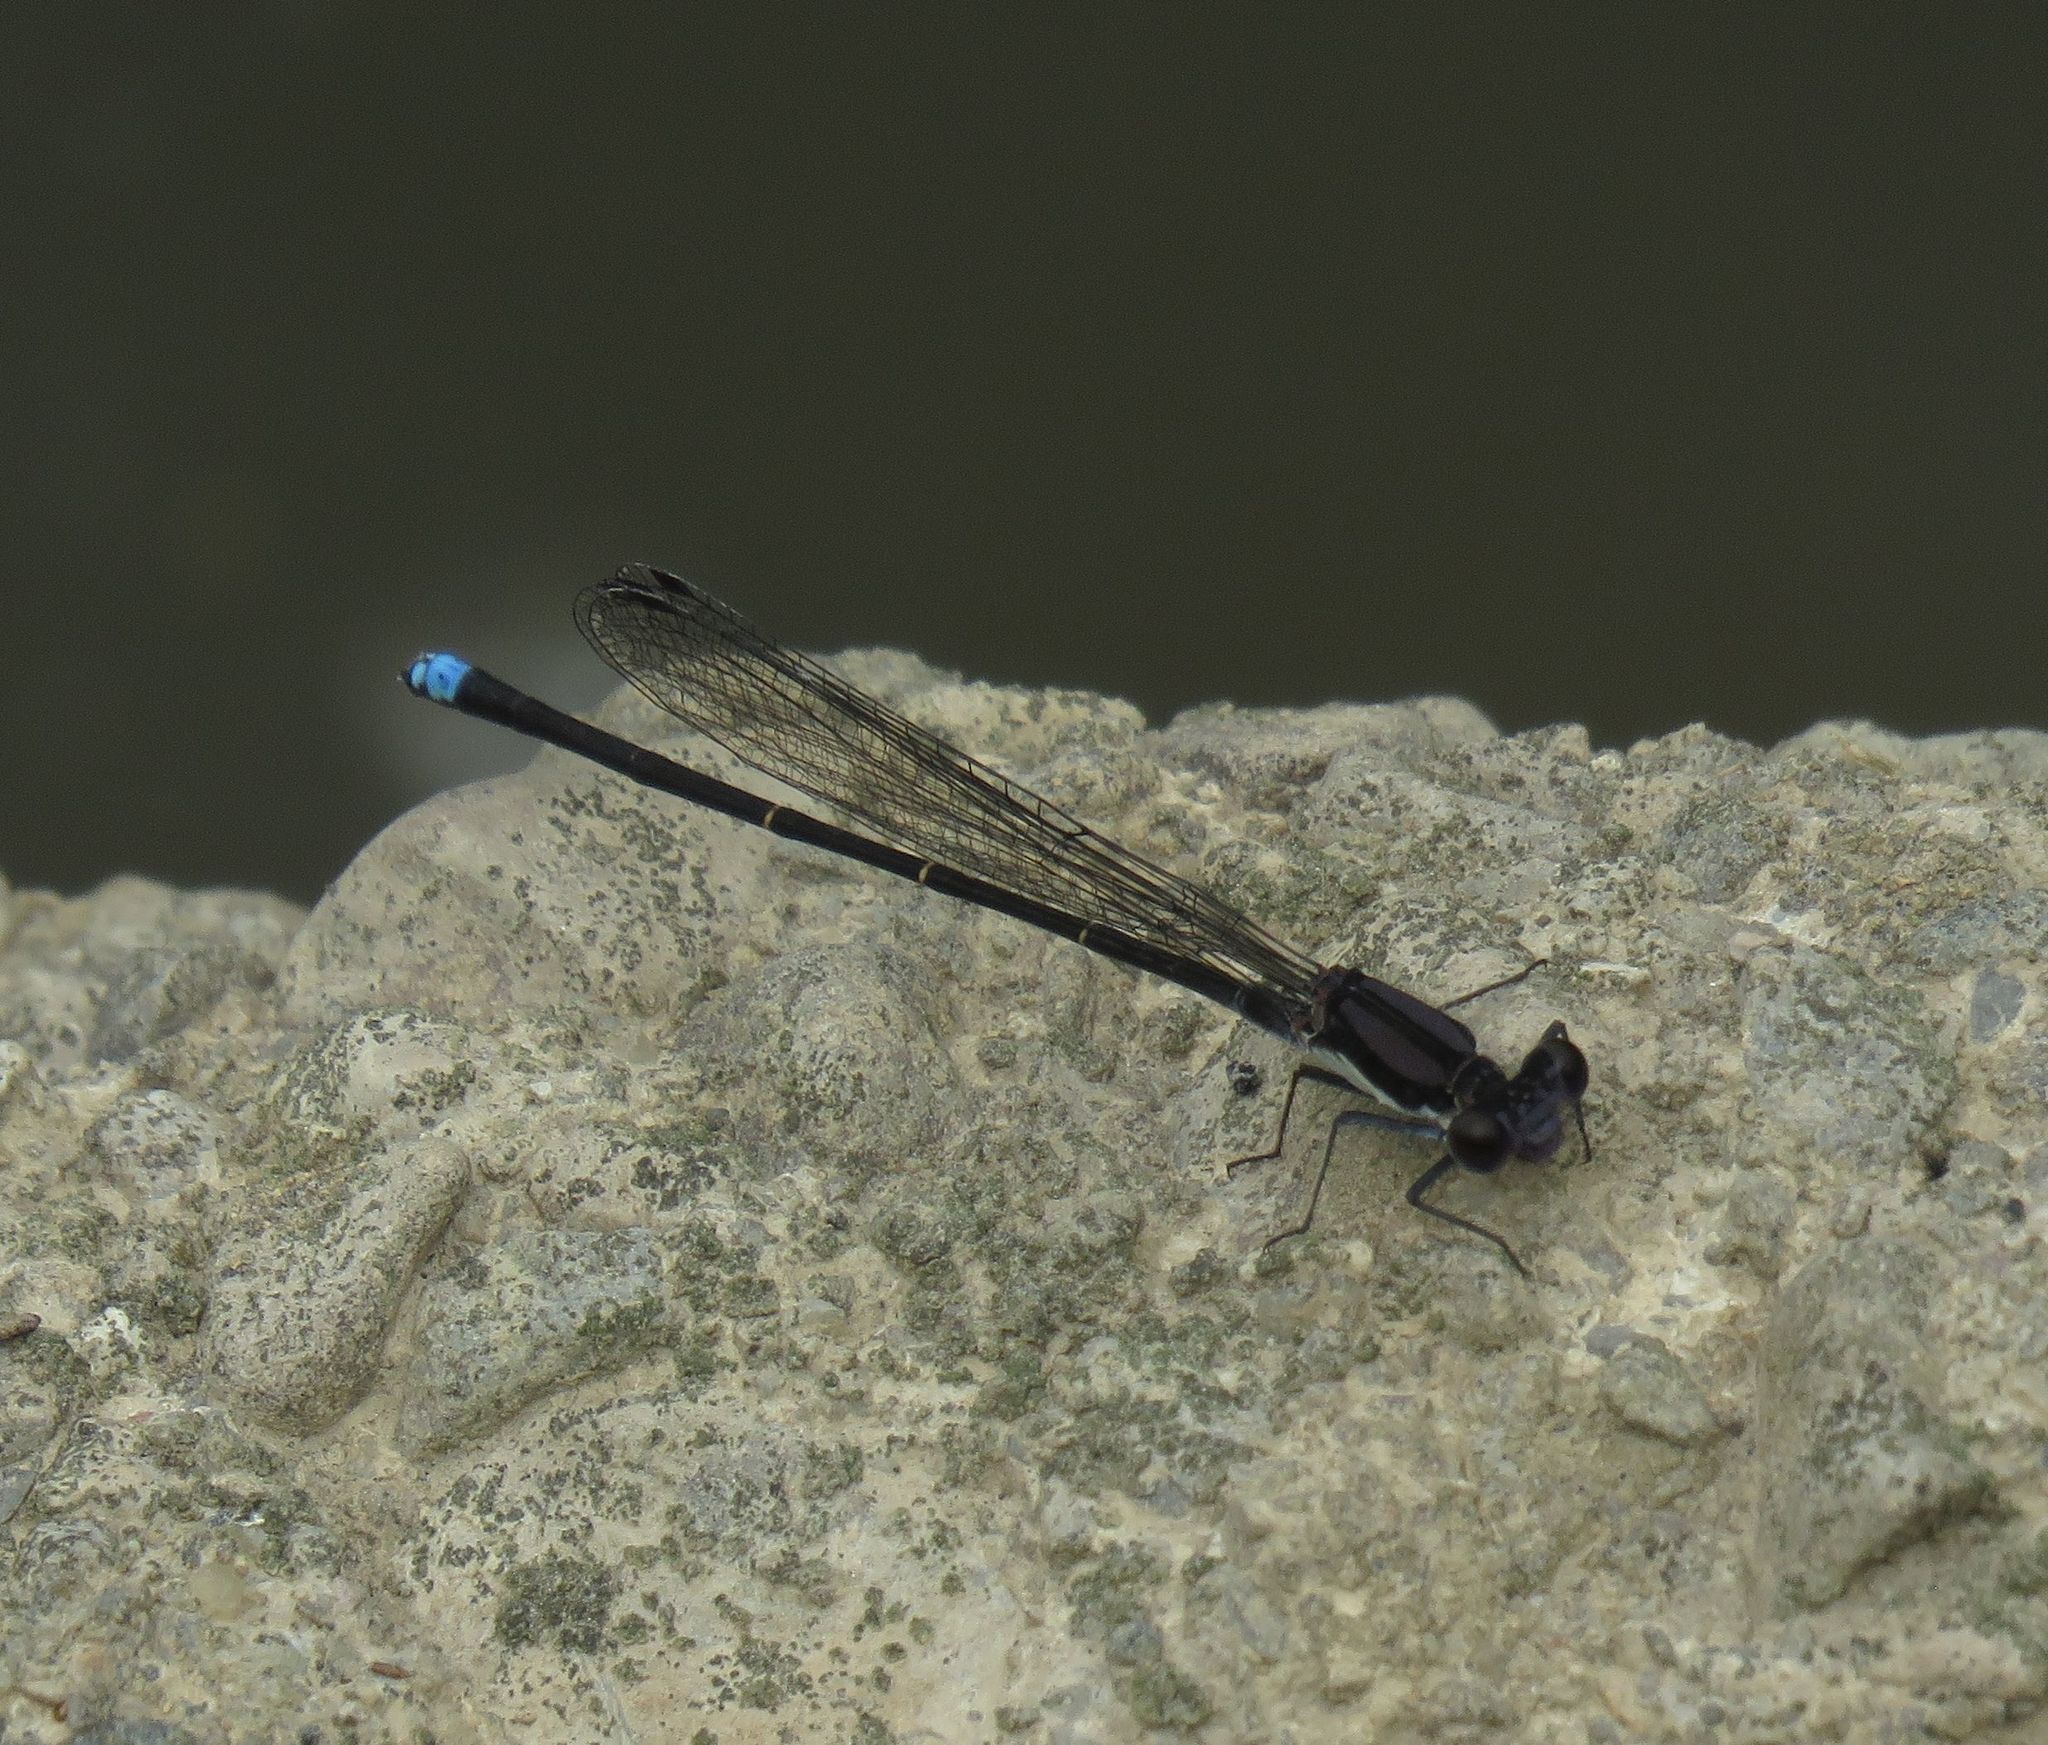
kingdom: Animalia
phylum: Arthropoda
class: Insecta
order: Odonata
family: Coenagrionidae
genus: Argia
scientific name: Argia tibialis
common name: Blue-tipped dancer
